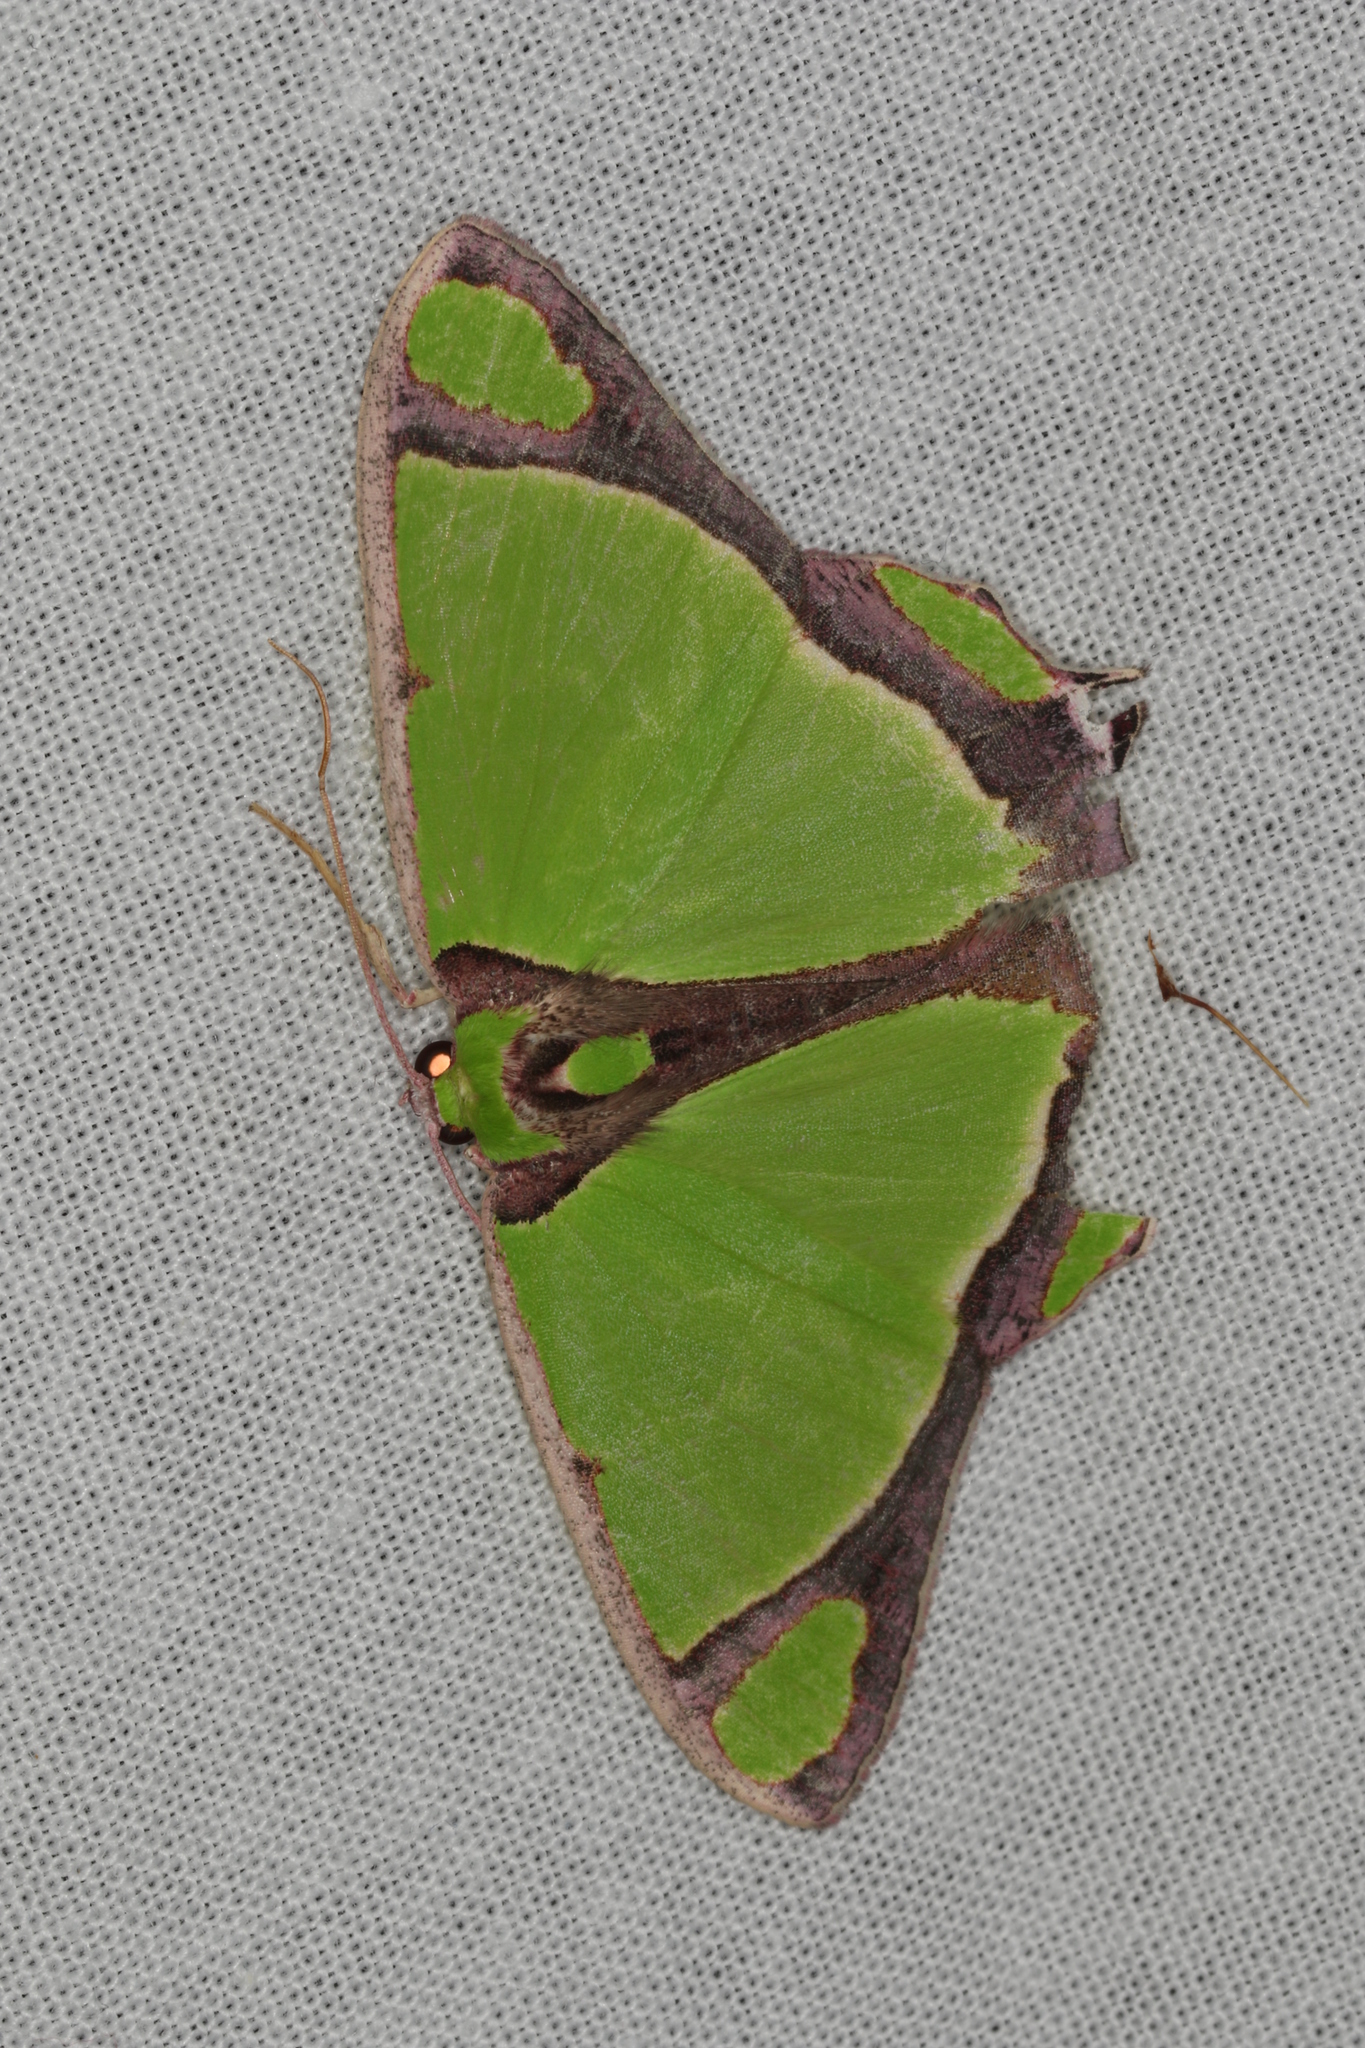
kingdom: Animalia
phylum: Arthropoda
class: Insecta
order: Lepidoptera
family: Geometridae
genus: Agathia
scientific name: Agathia prasinaspis
